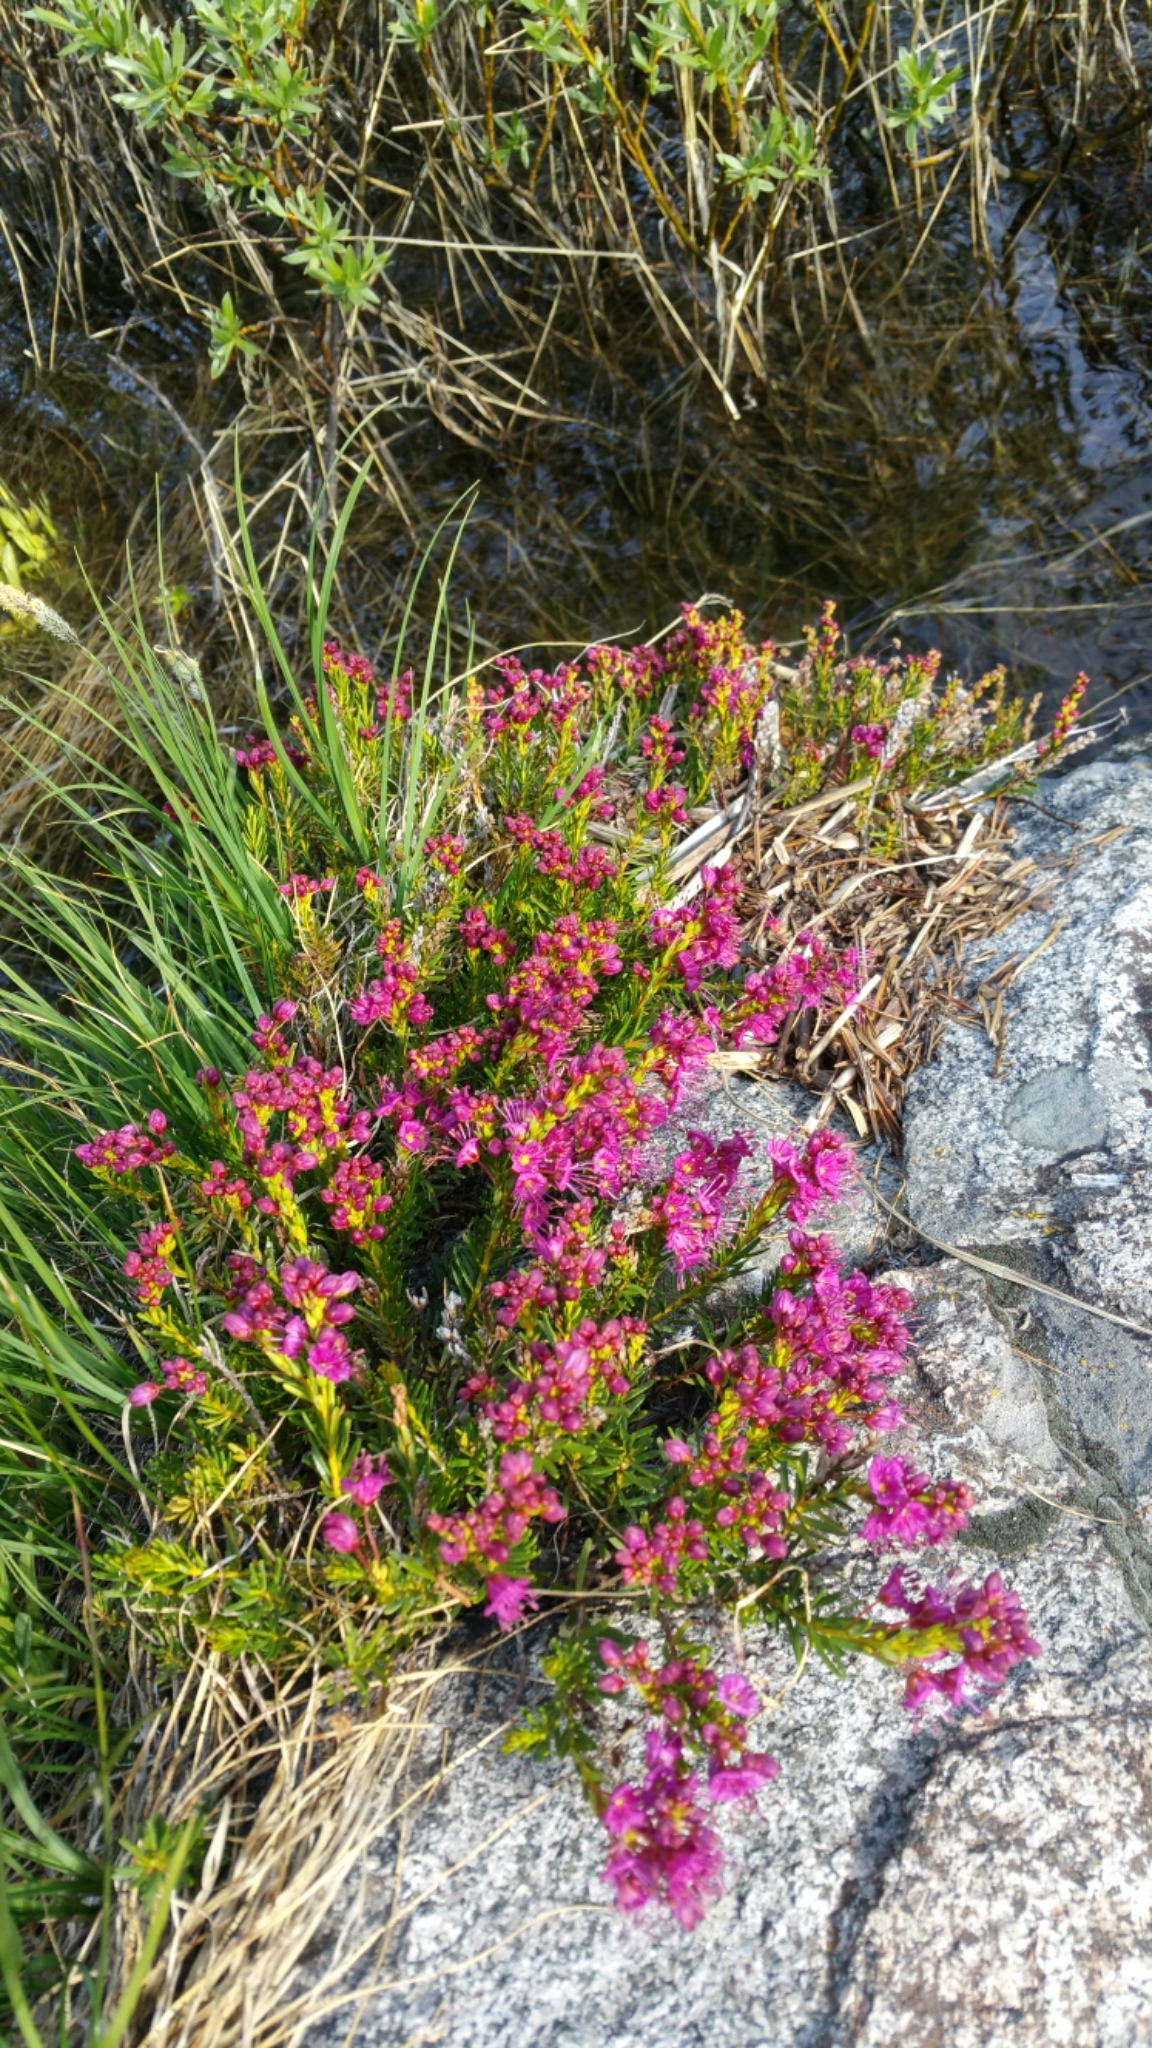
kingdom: Plantae
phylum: Tracheophyta
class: Magnoliopsida
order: Ericales
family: Ericaceae
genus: Phyllodoce
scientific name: Phyllodoce breweri
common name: Brewer's mountain-heather
